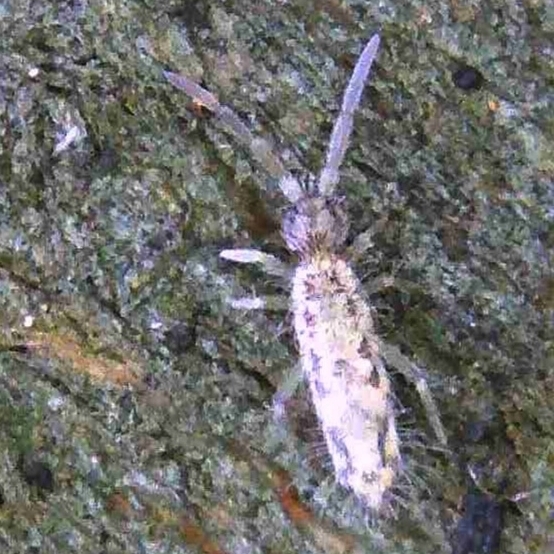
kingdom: Animalia
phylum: Arthropoda
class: Collembola
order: Entomobryomorpha
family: Entomobryidae
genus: Entomobrya
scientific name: Entomobrya intermedia
